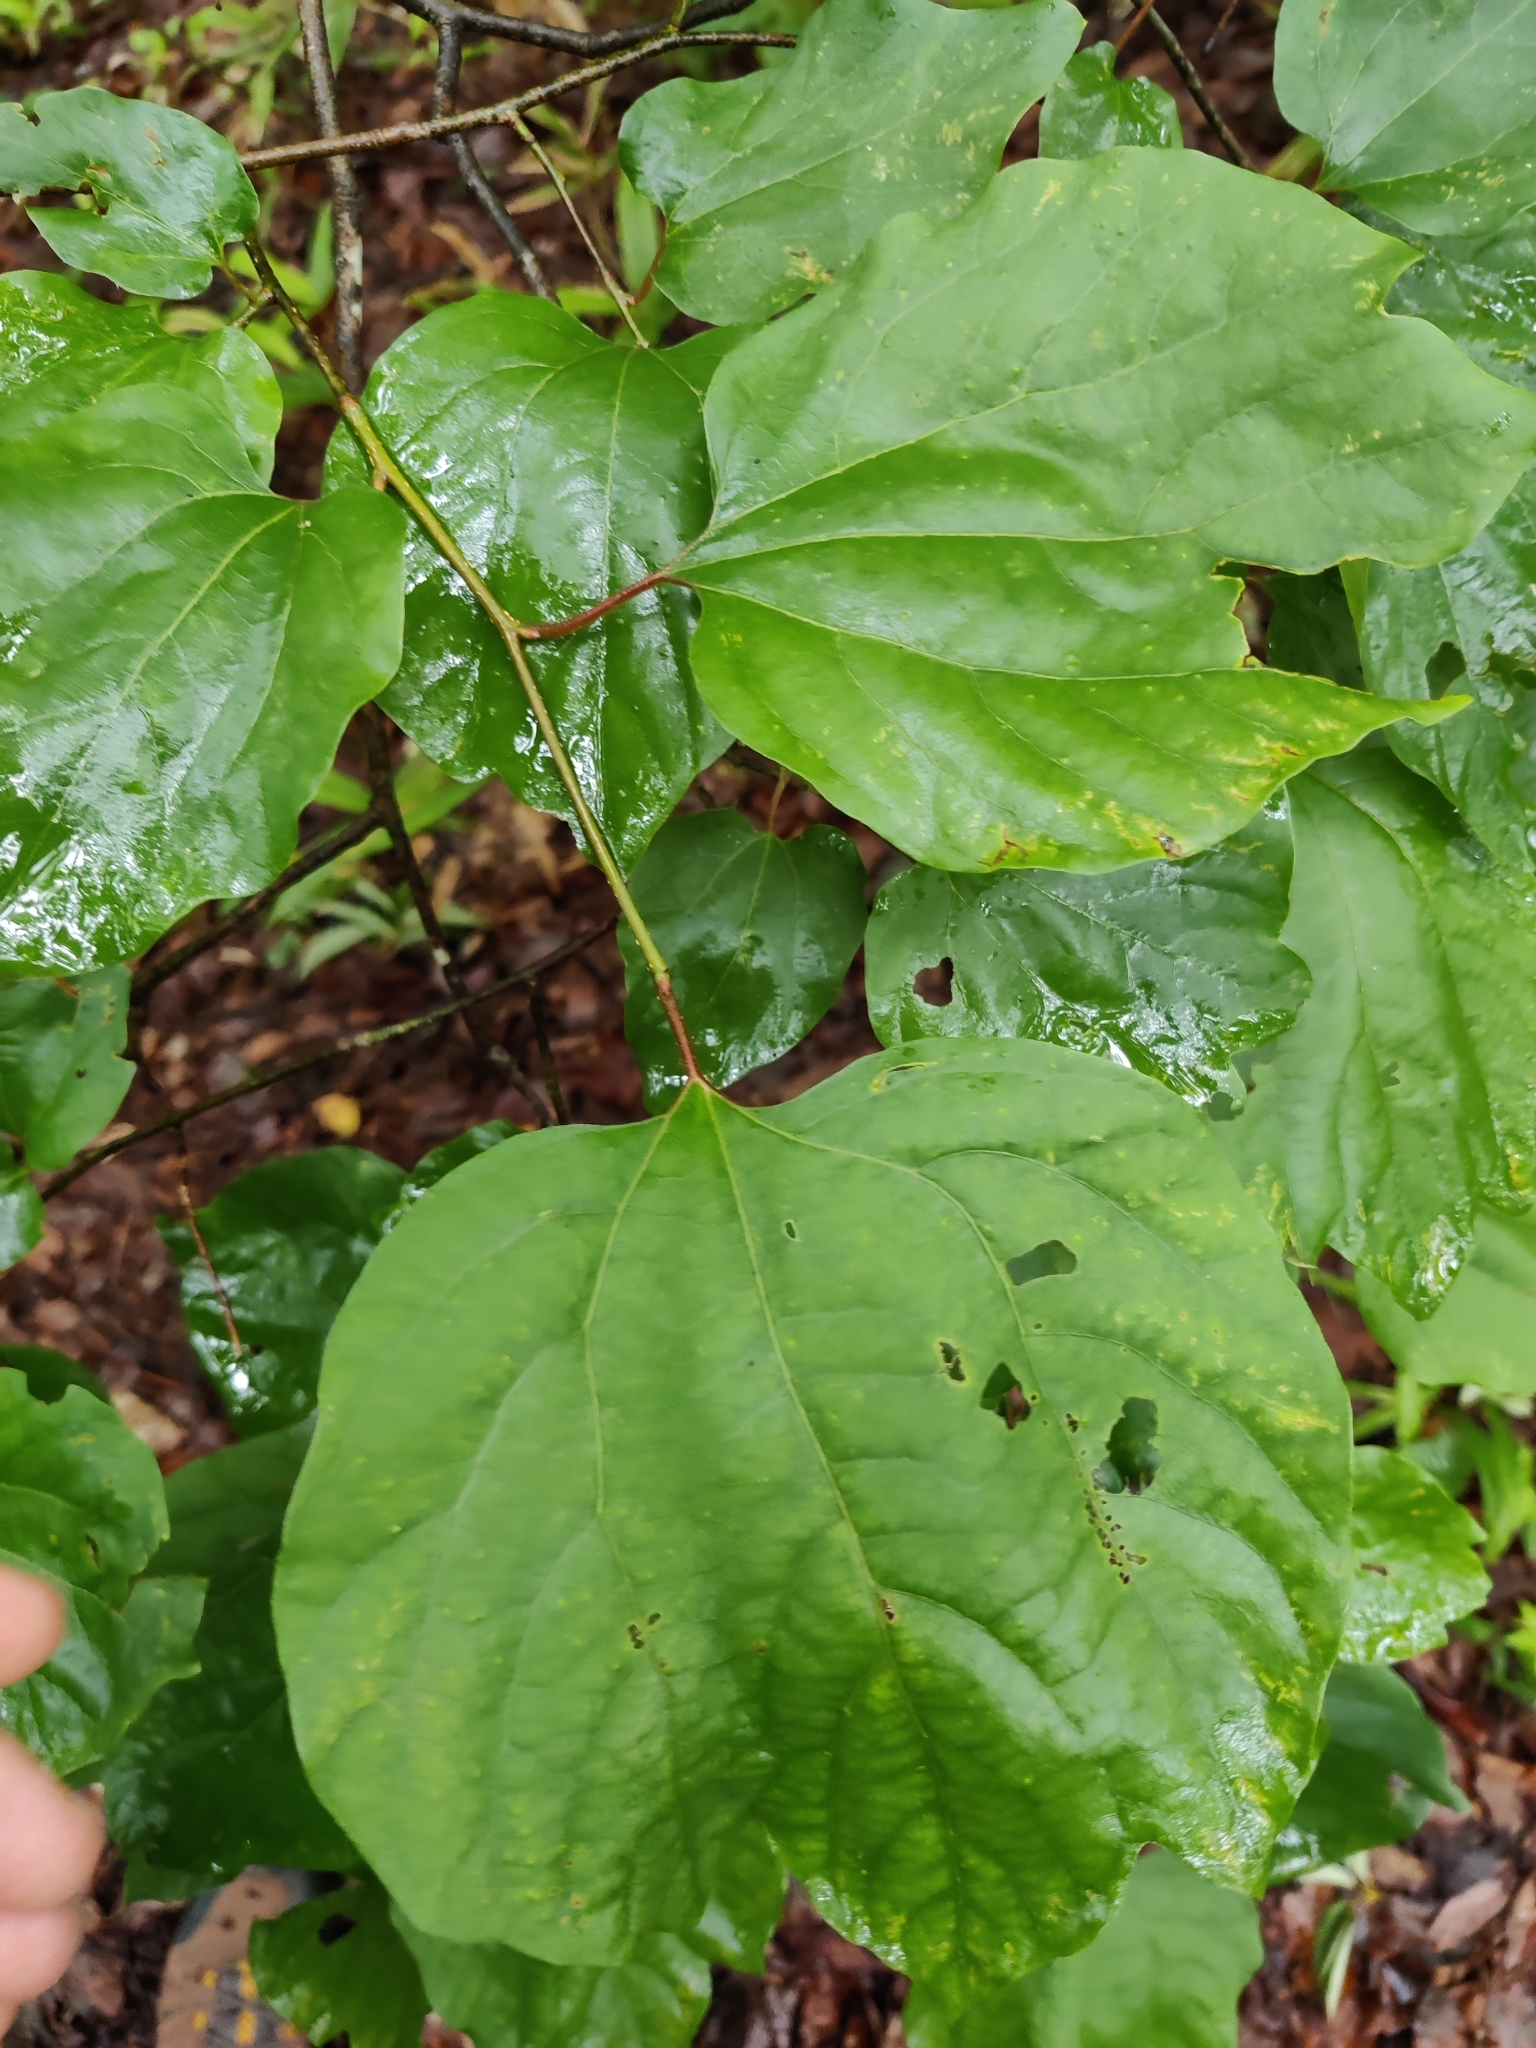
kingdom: Plantae
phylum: Tracheophyta
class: Magnoliopsida
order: Laurales
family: Lauraceae
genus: Lindera
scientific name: Lindera obtusiloba
